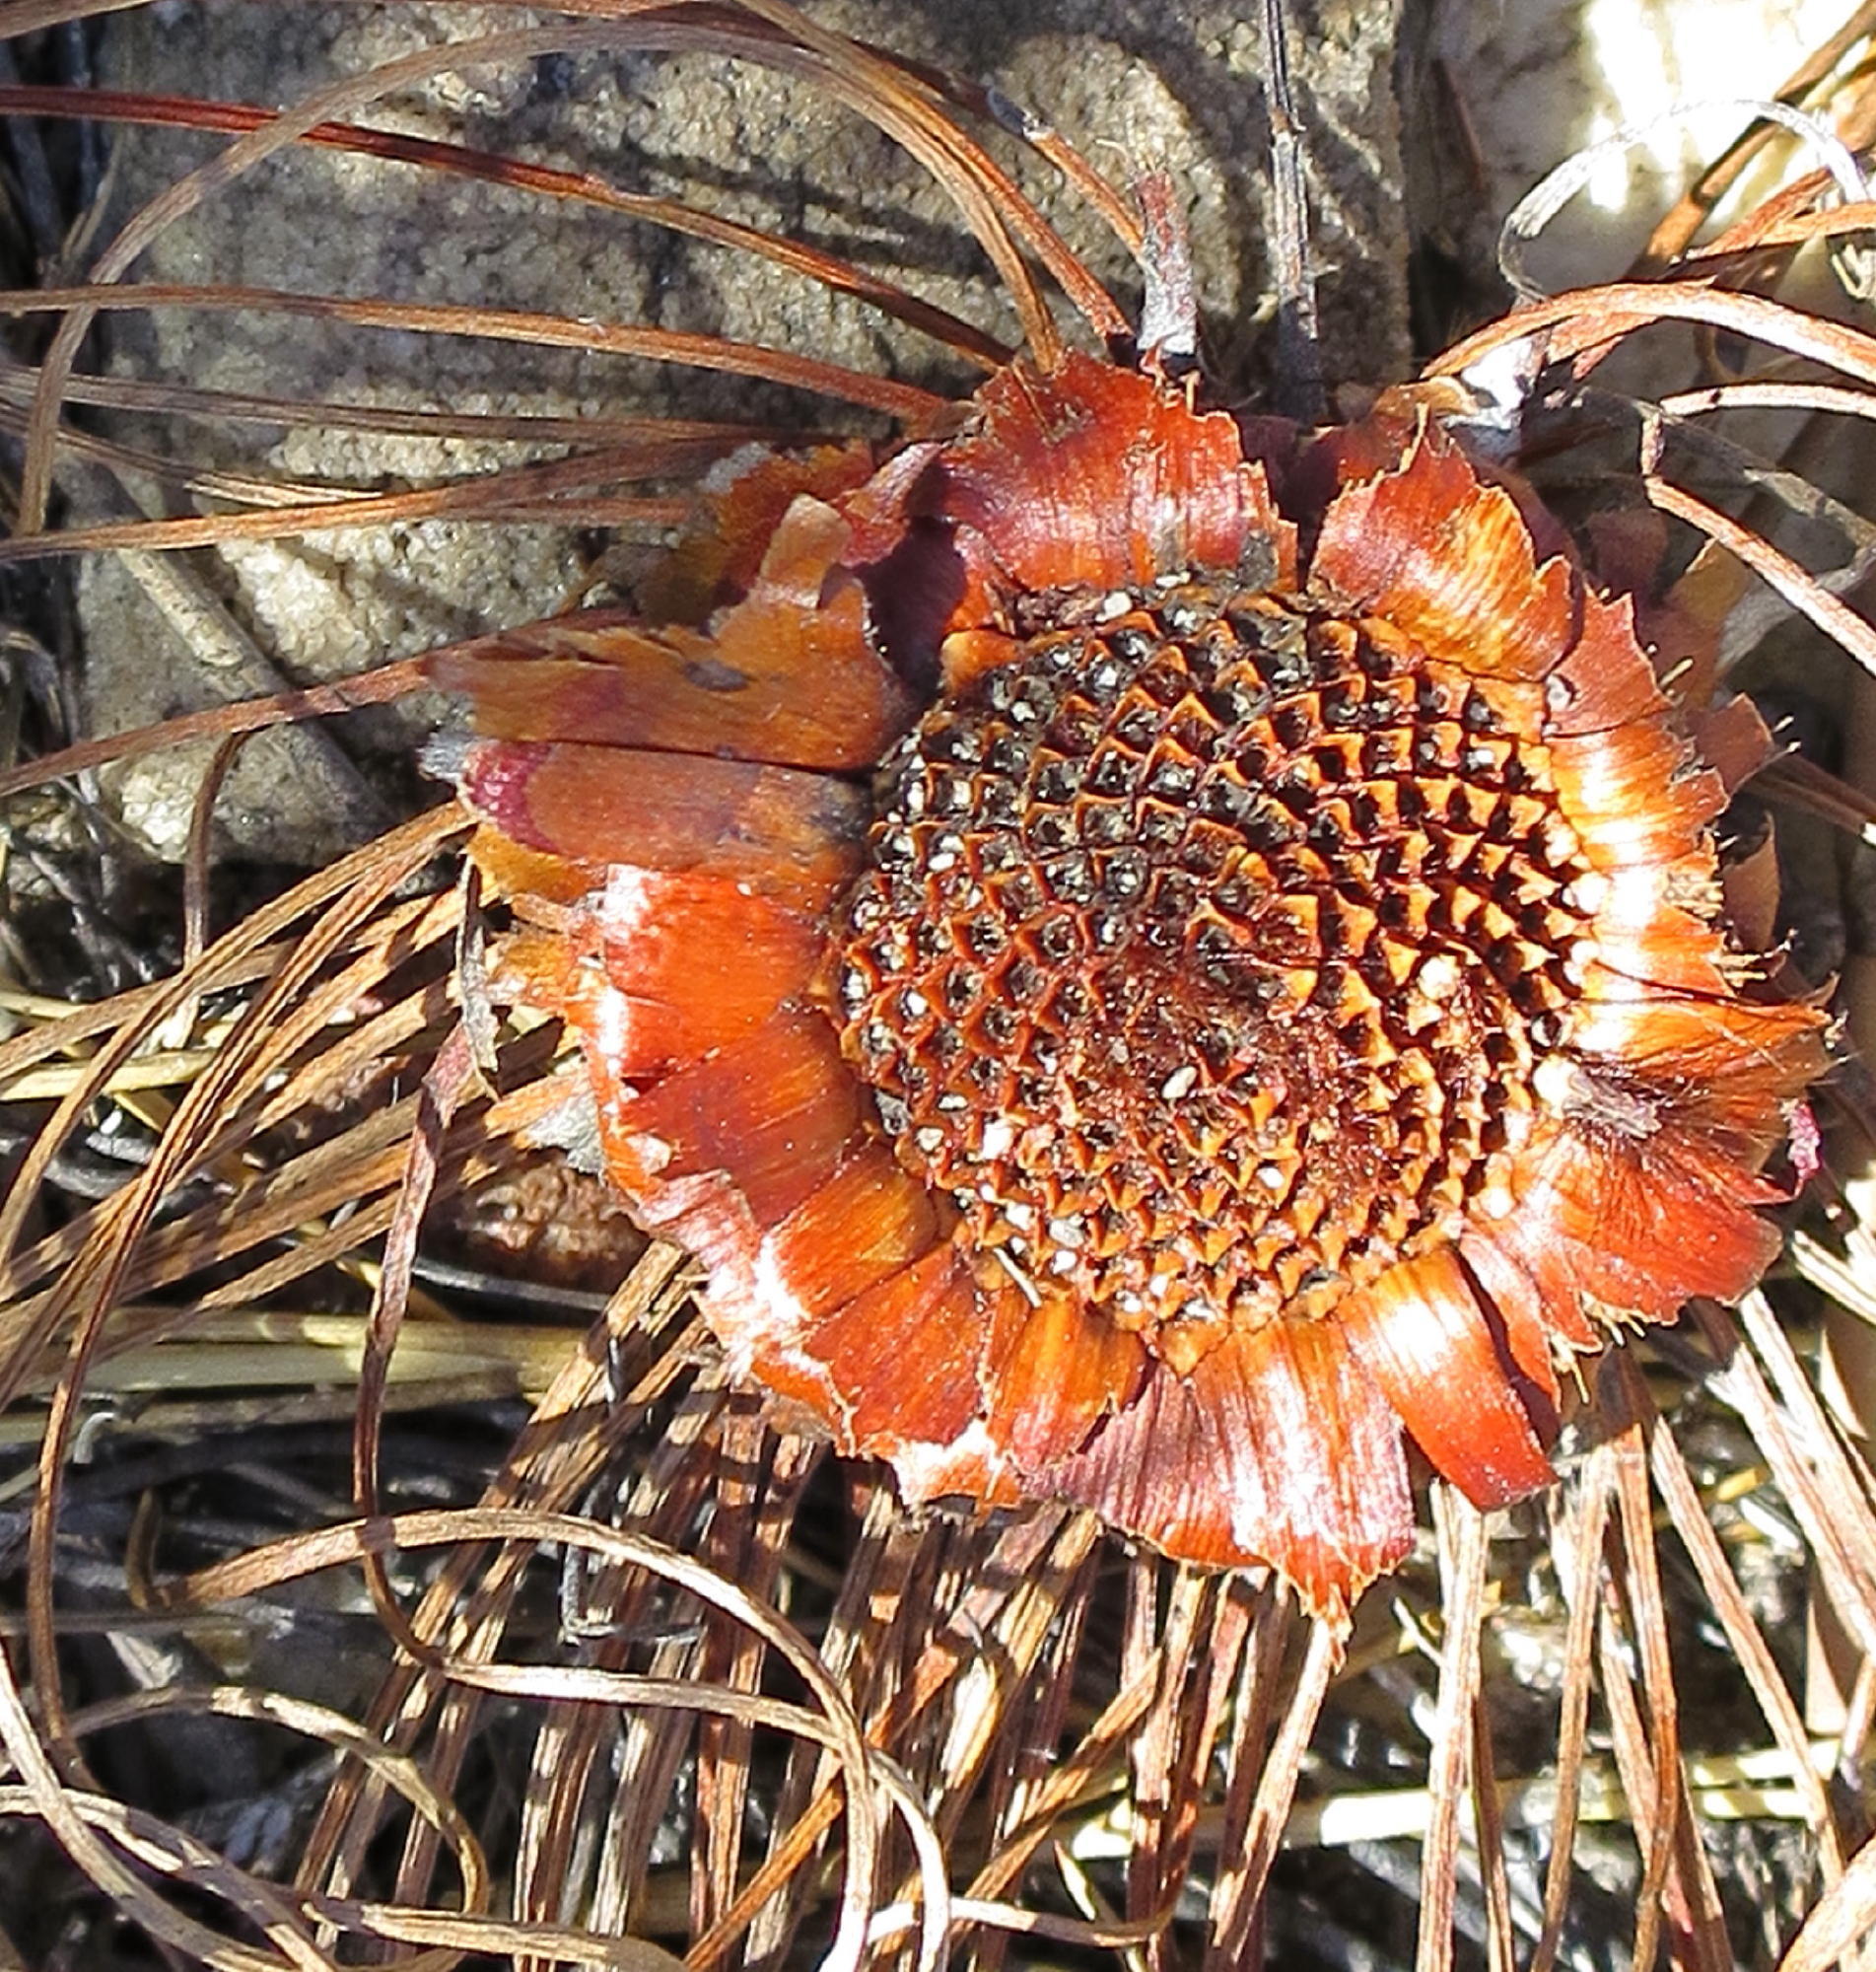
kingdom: Plantae
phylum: Tracheophyta
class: Magnoliopsida
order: Proteales
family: Proteaceae
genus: Protea
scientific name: Protea montana
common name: Swartberg sugarbush
